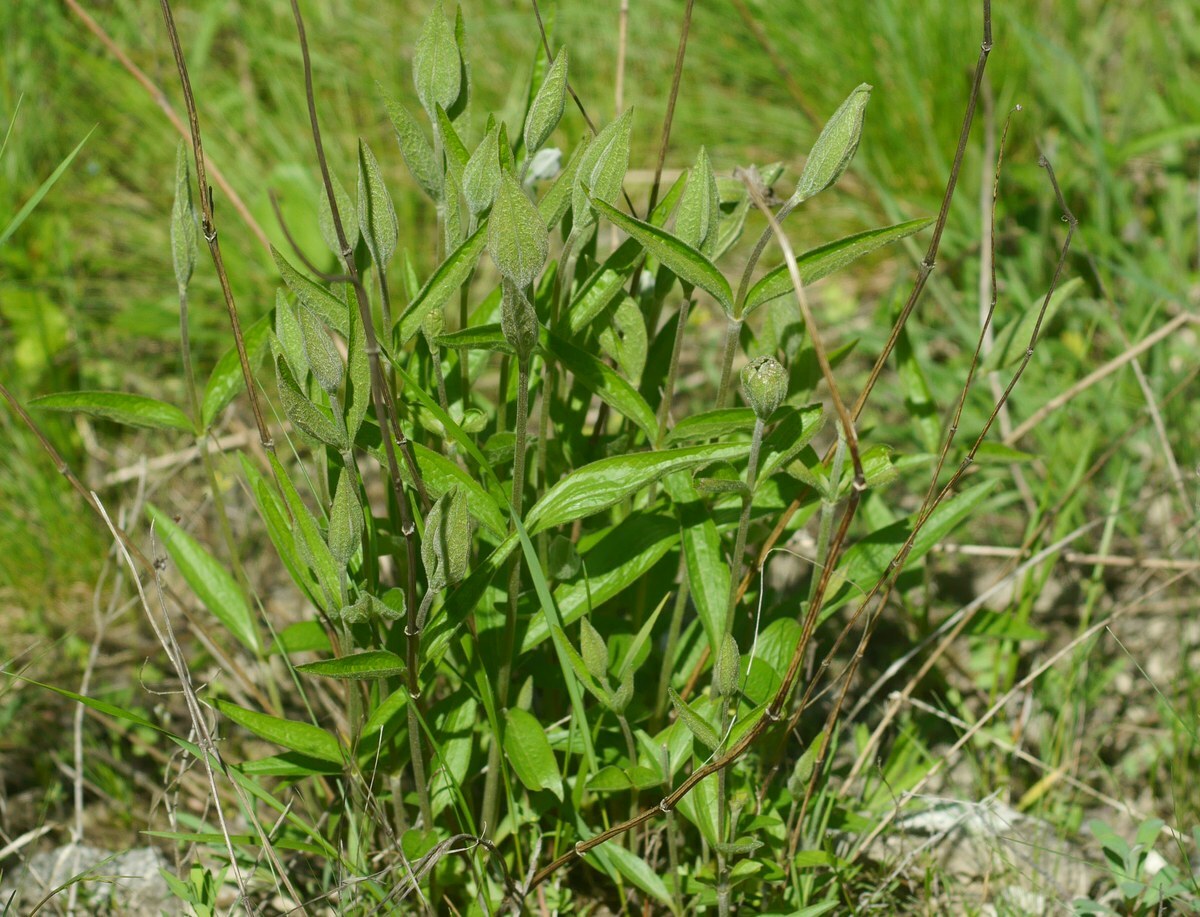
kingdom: Plantae
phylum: Tracheophyta
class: Magnoliopsida
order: Ranunculales
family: Ranunculaceae
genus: Clematis
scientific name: Clematis integrifolia
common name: Solitary clematis
